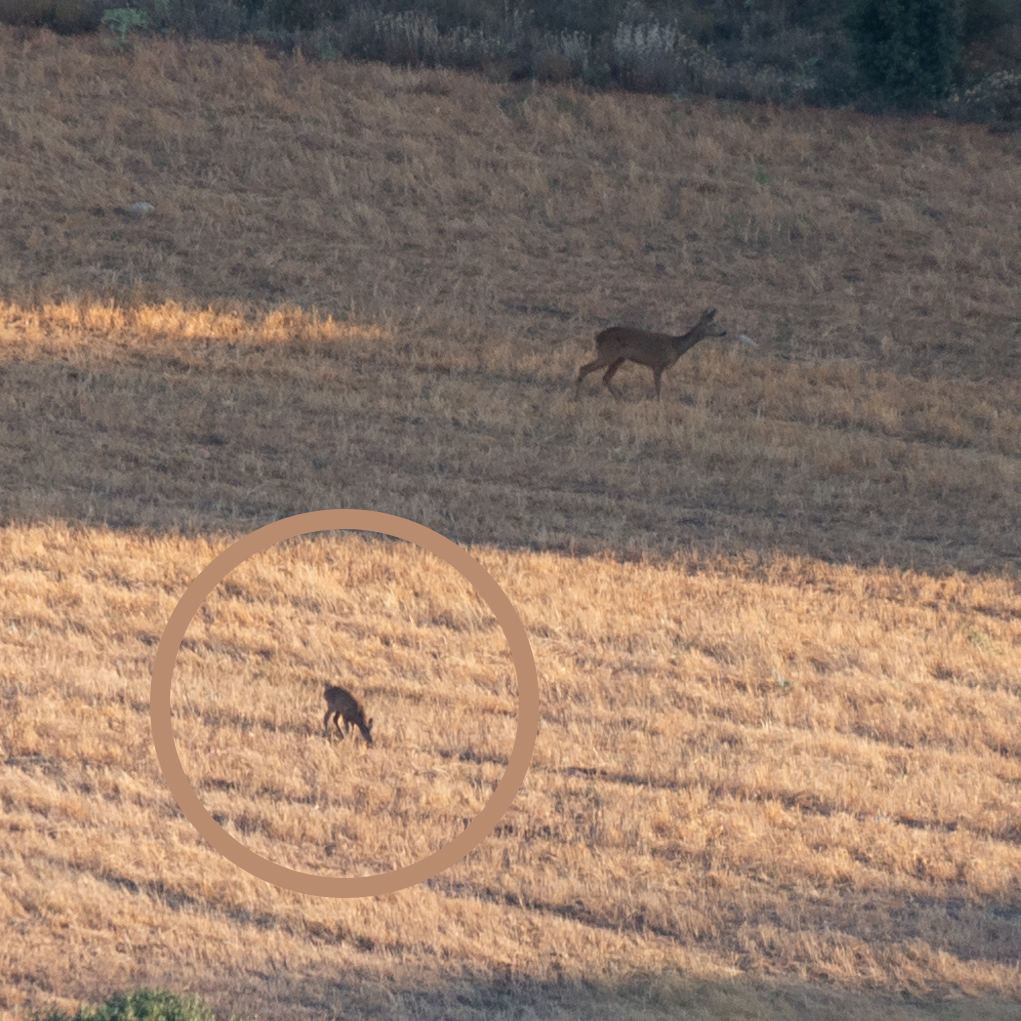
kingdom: Animalia
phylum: Chordata
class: Mammalia
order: Artiodactyla
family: Cervidae
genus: Capreolus
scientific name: Capreolus capreolus
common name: Western roe deer
